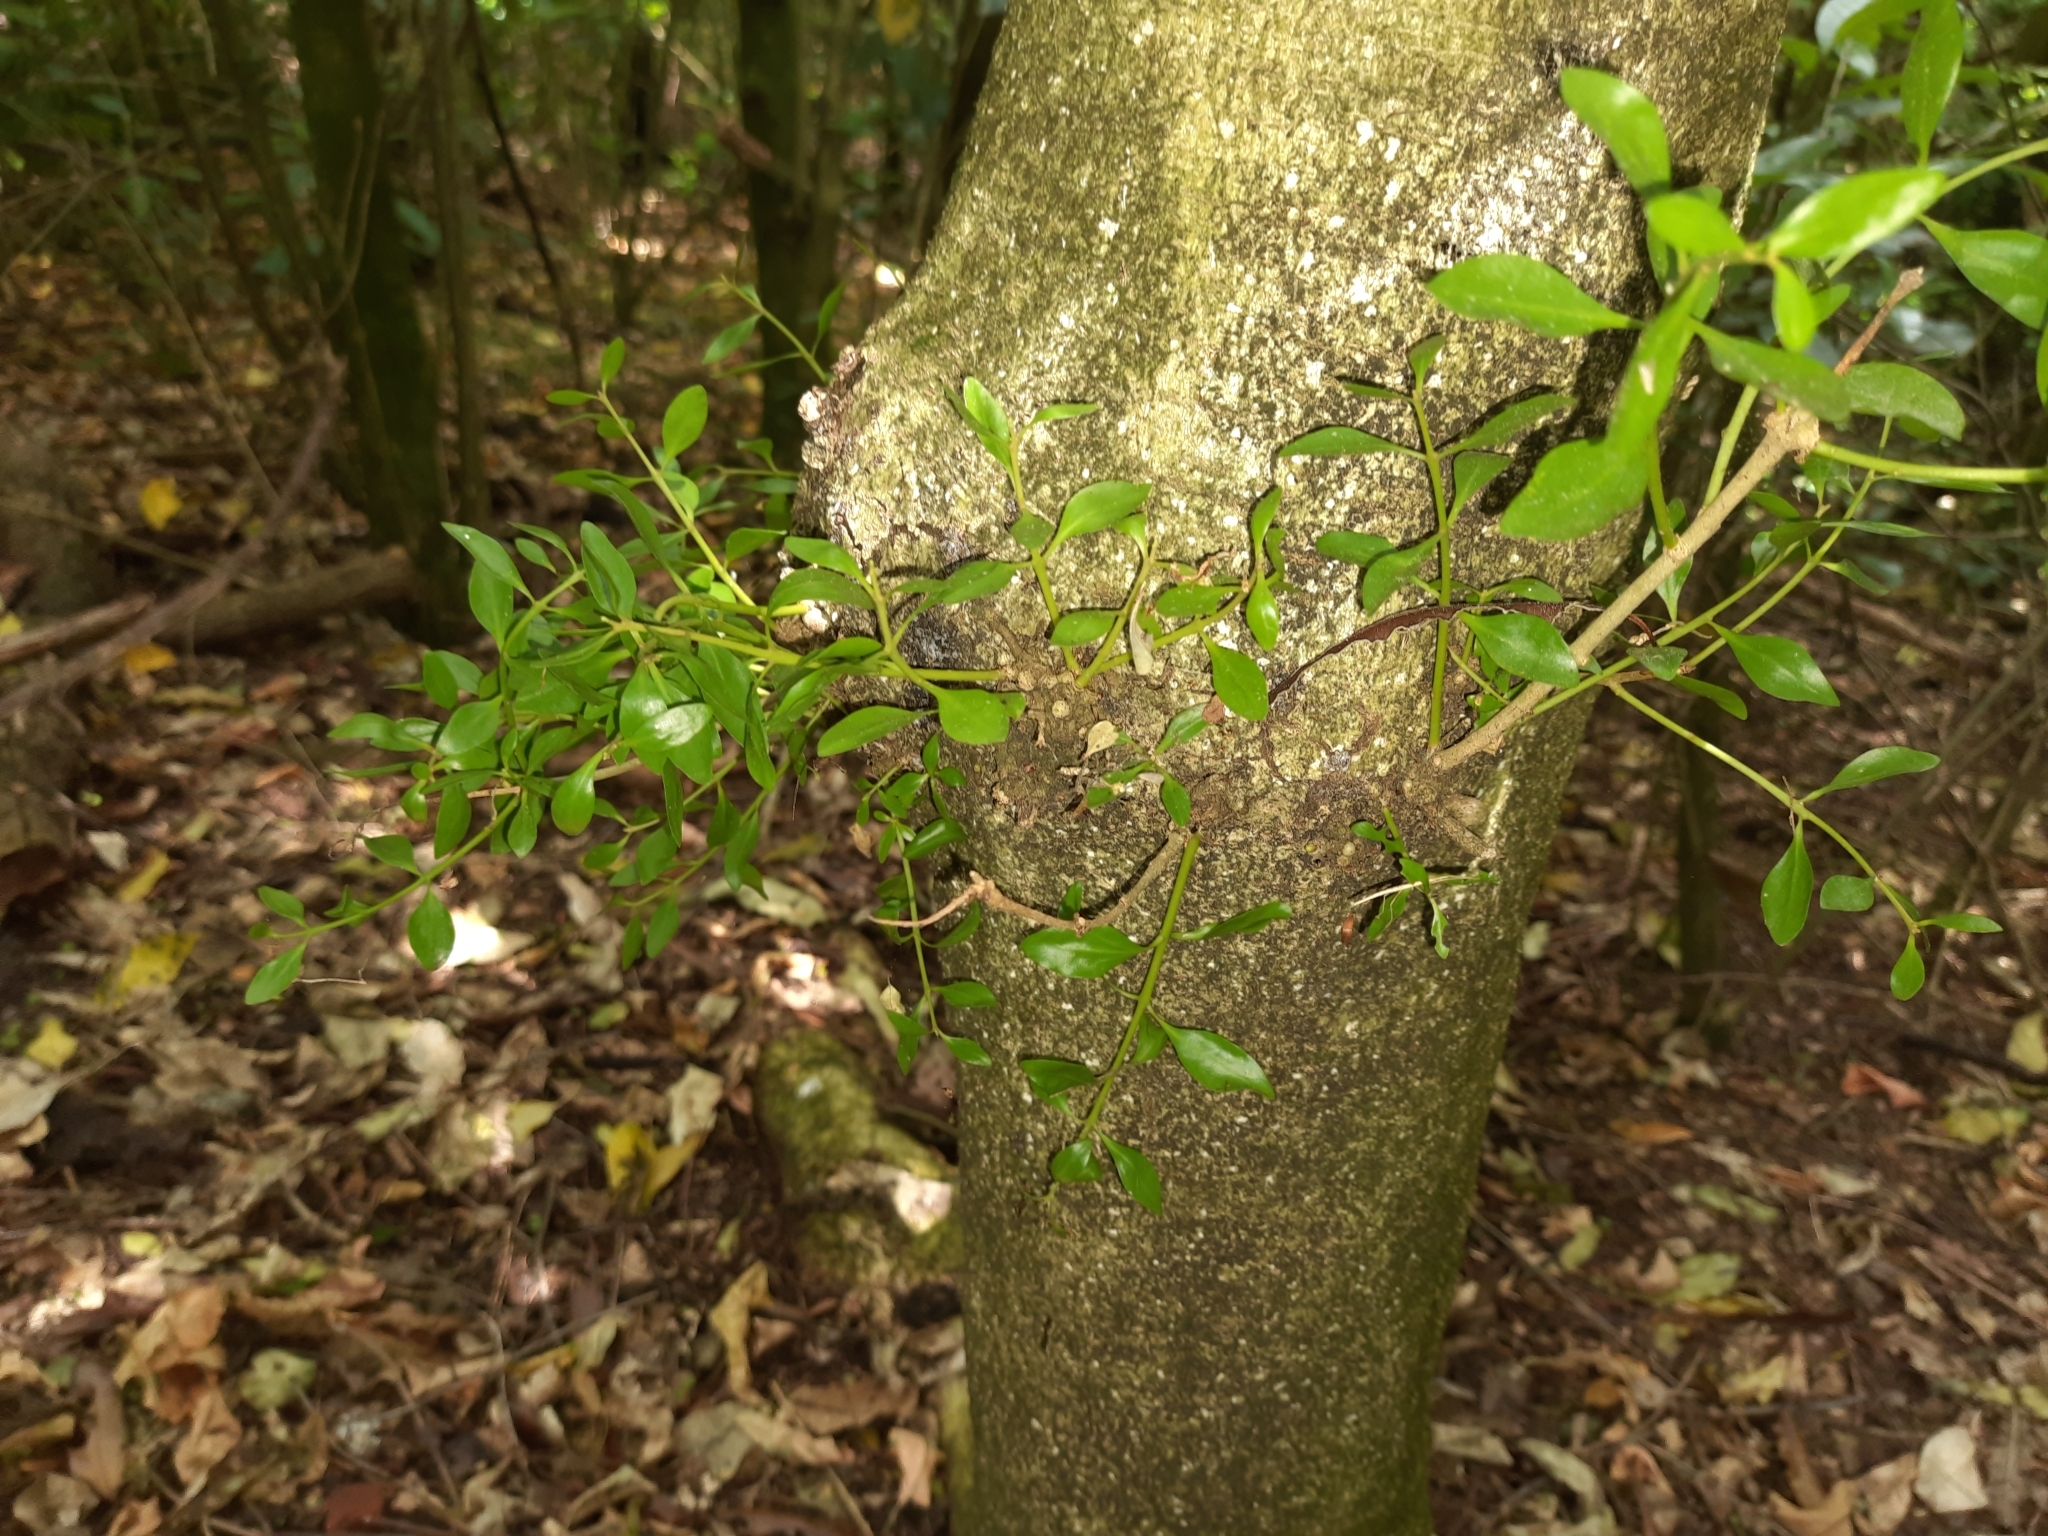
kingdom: Plantae
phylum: Tracheophyta
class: Magnoliopsida
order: Santalales
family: Loranthaceae
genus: Tupeia
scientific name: Tupeia antarctica
